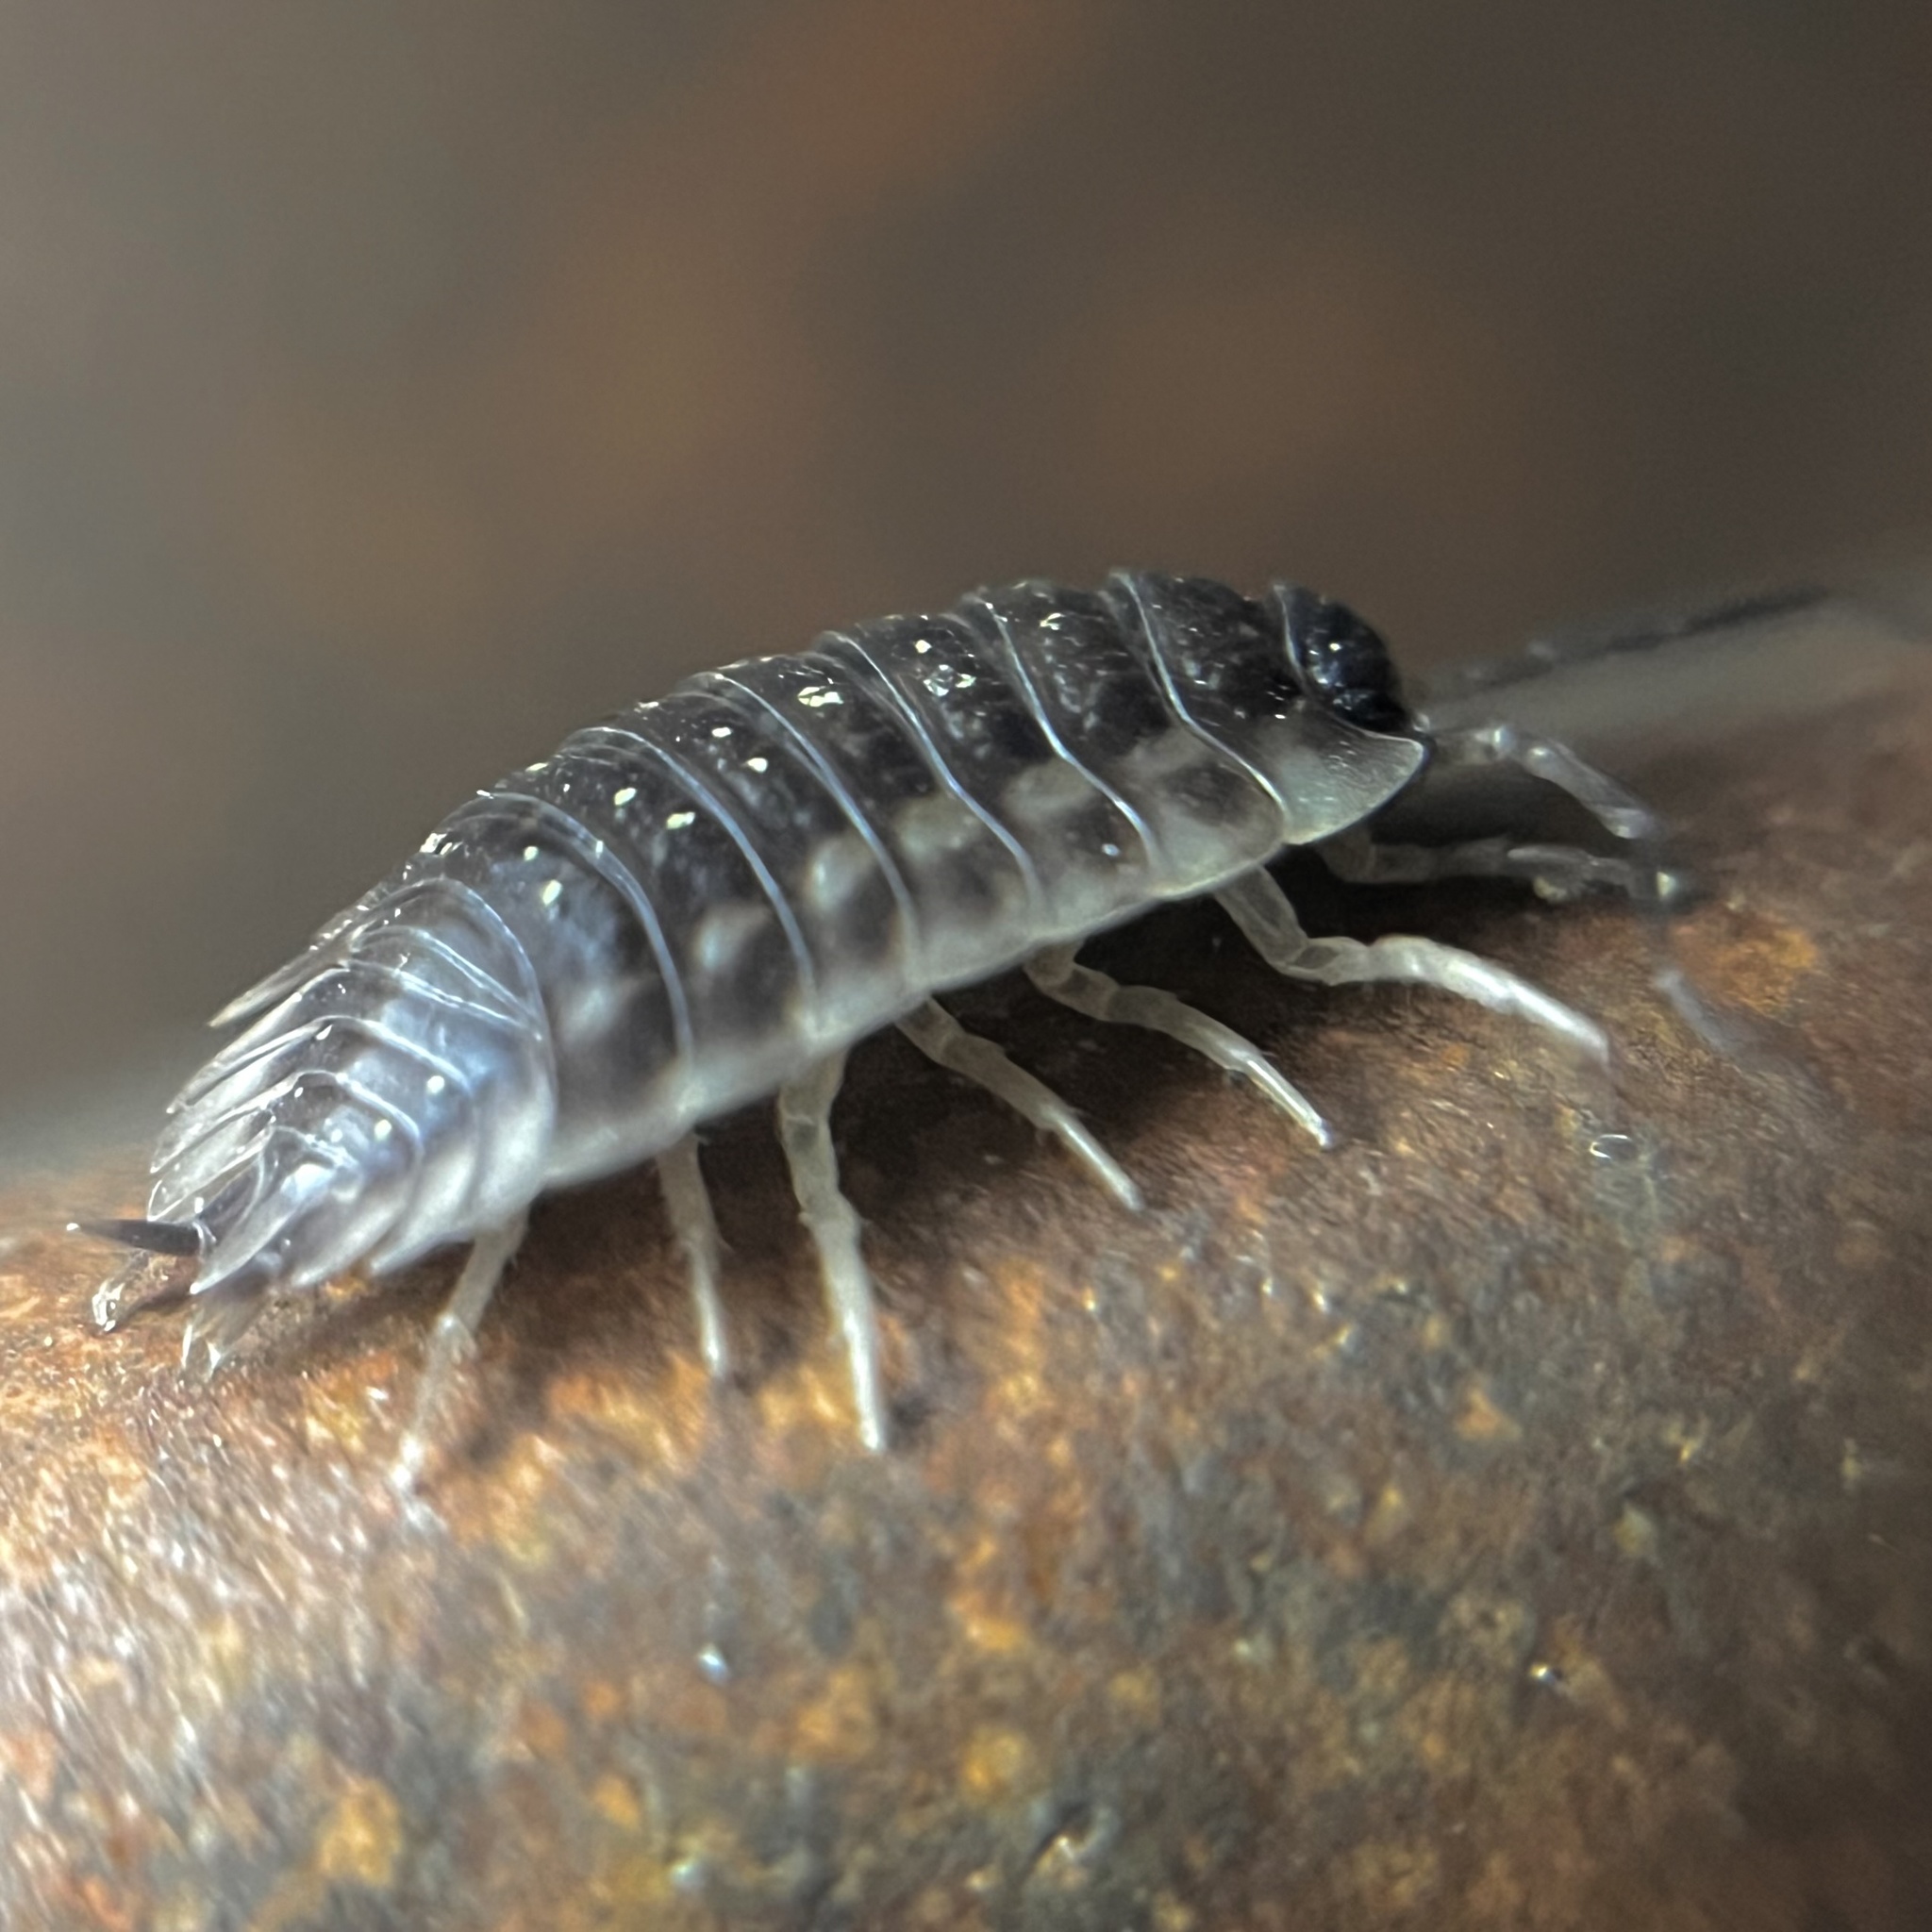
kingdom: Animalia
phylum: Arthropoda
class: Malacostraca
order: Isopoda
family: Oniscidae
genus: Oniscus
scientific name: Oniscus asellus
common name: Common shiny woodlouse
